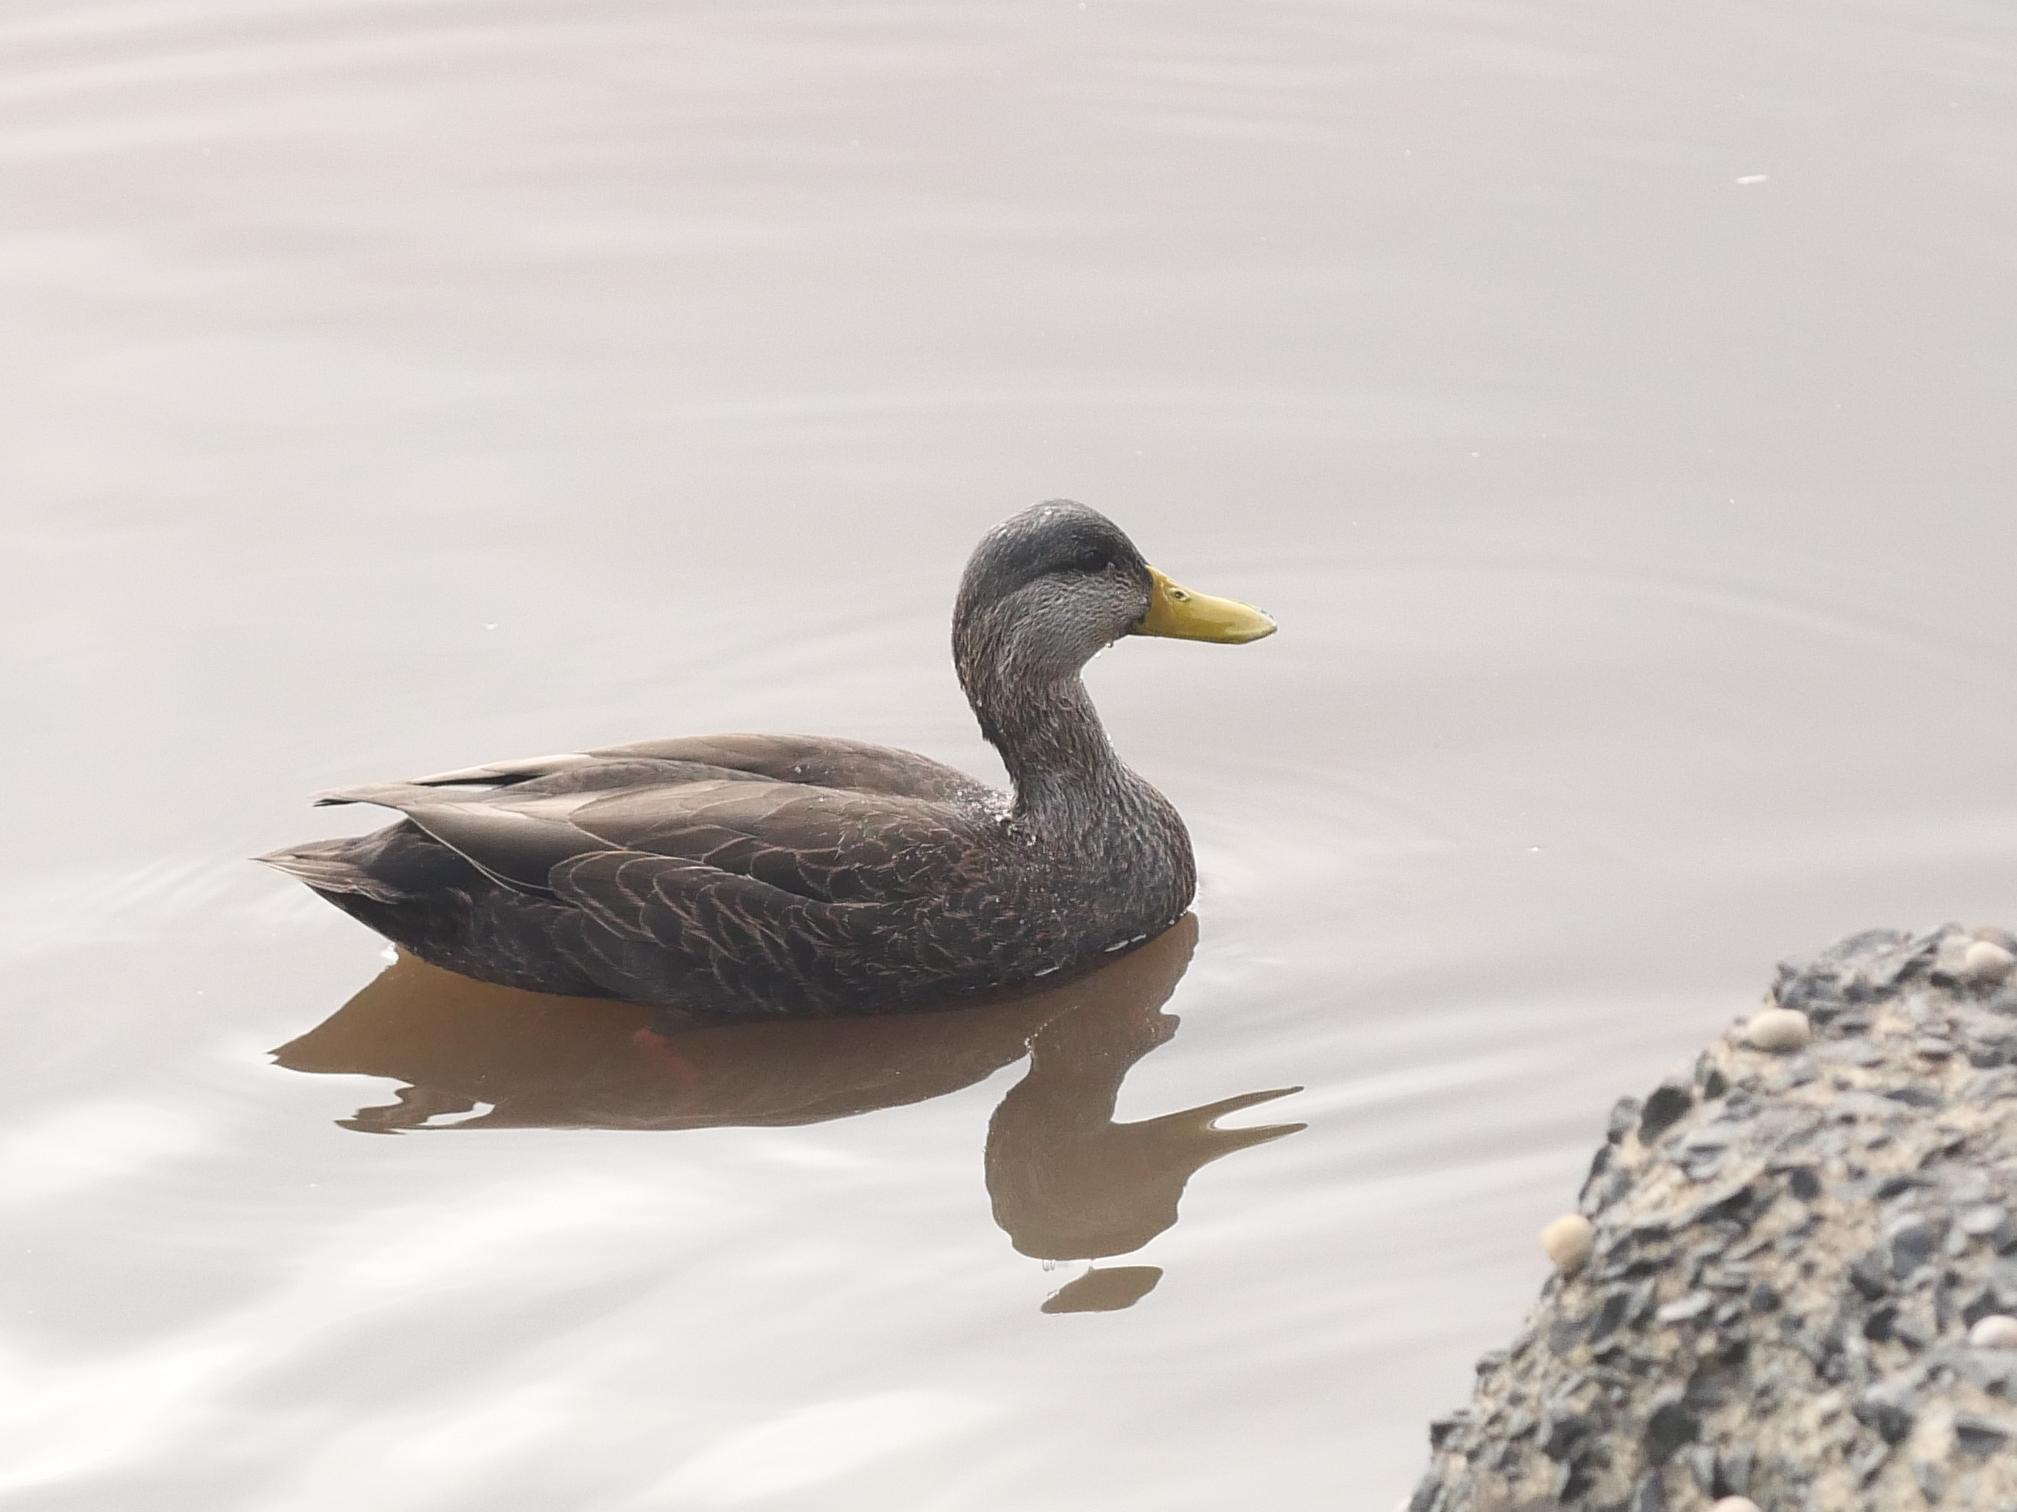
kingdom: Animalia
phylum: Chordata
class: Aves
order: Anseriformes
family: Anatidae
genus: Anas
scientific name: Anas rubripes
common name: American black duck
